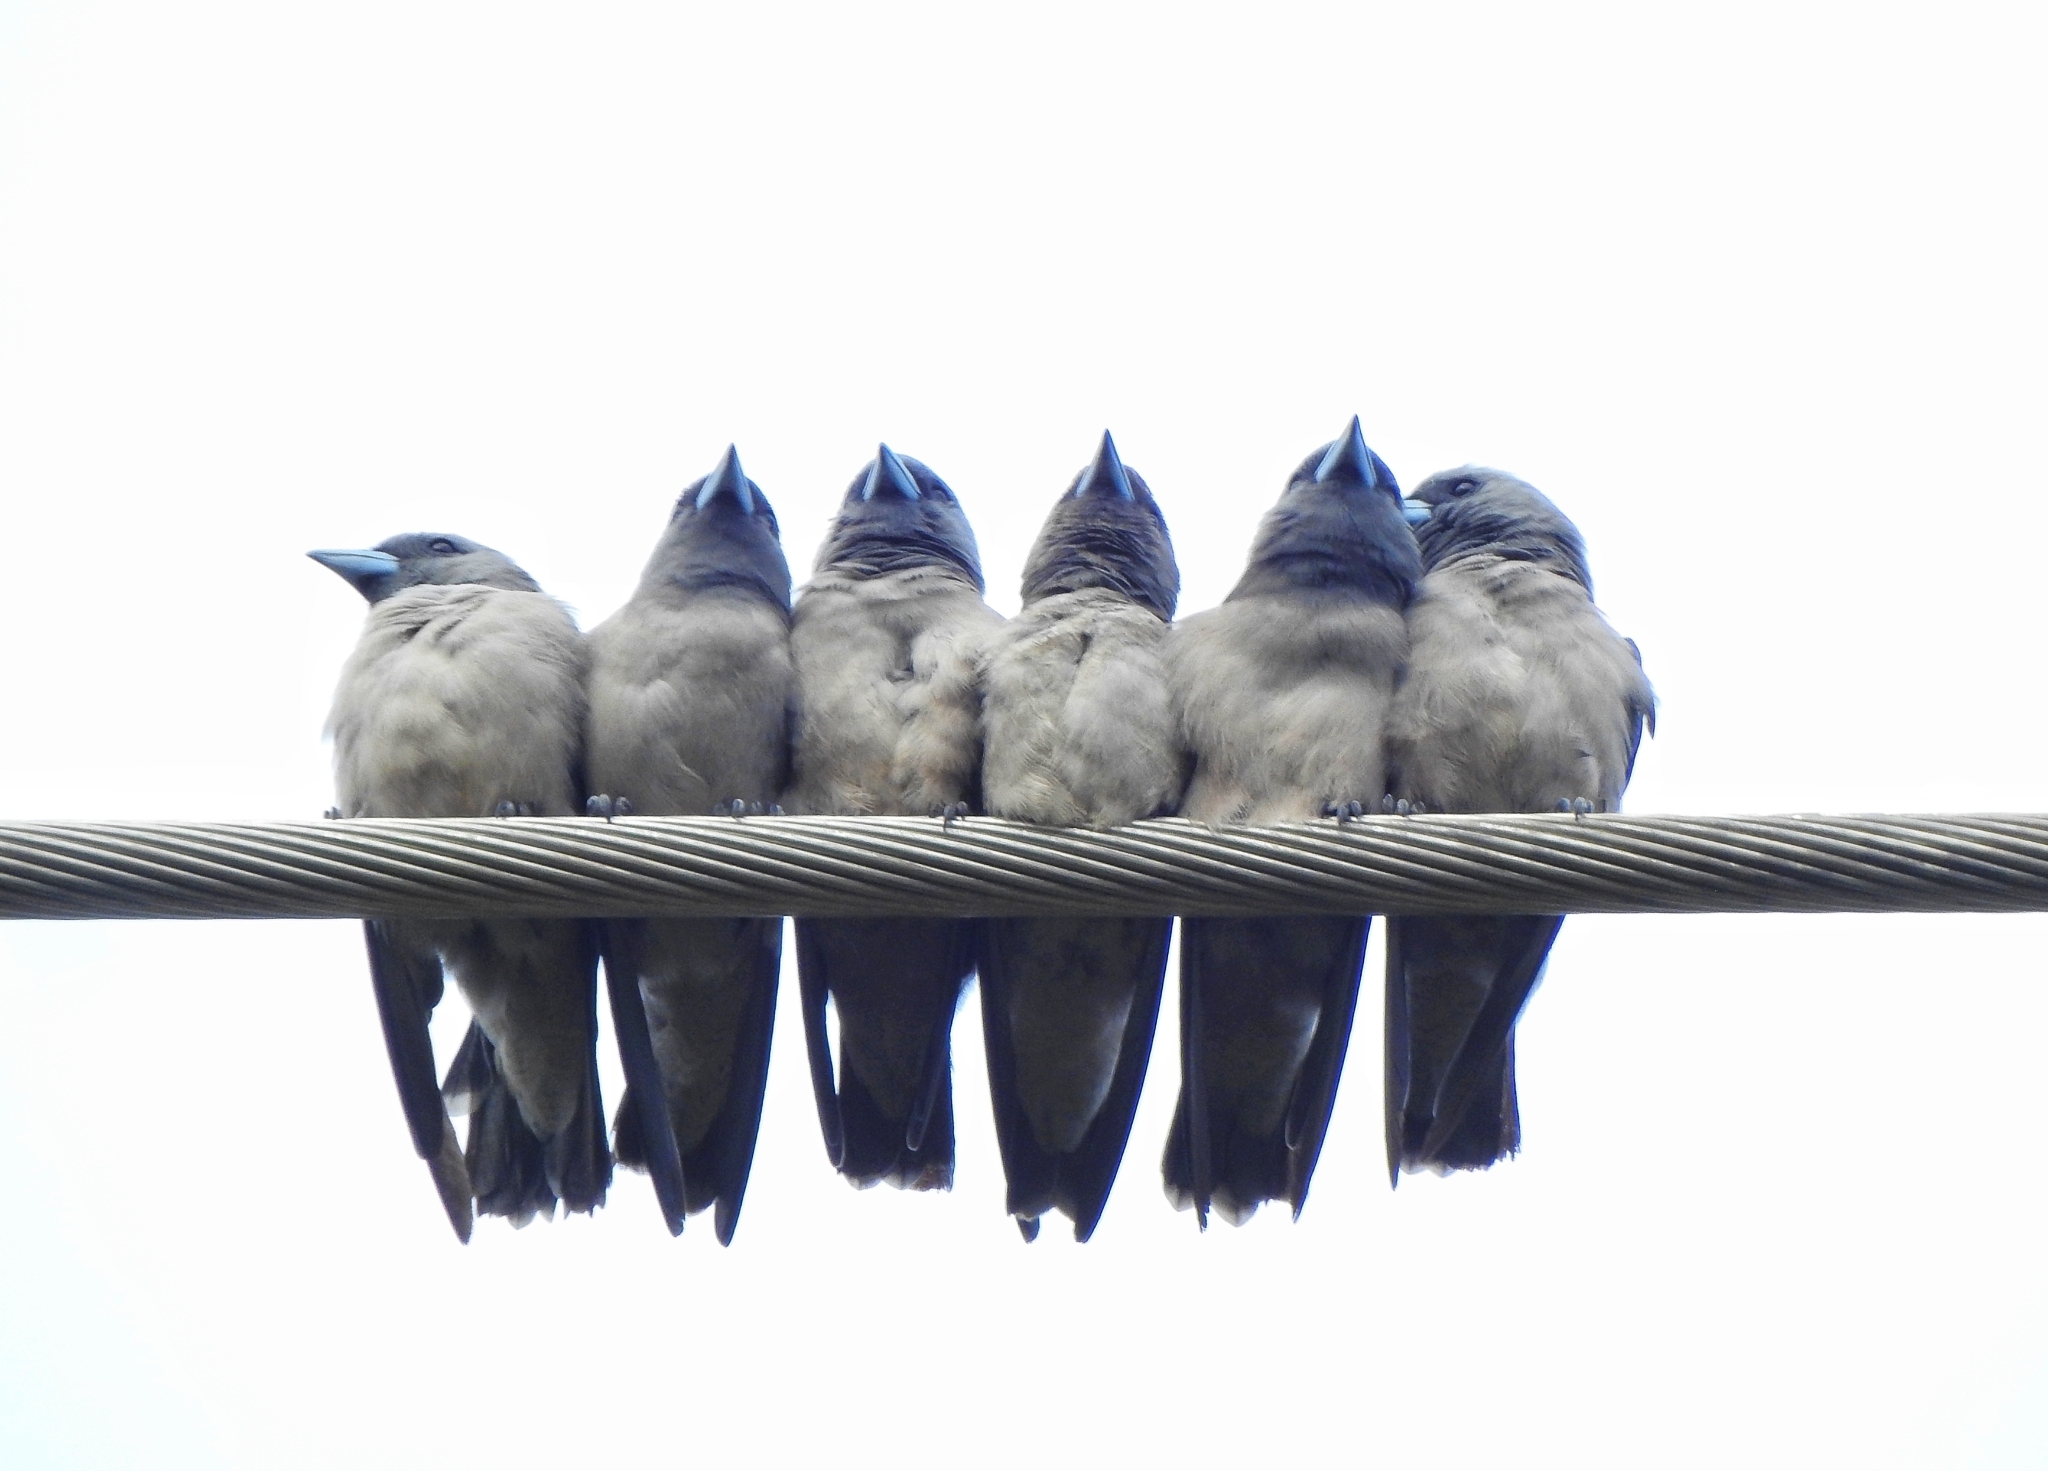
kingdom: Animalia
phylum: Chordata
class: Aves
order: Passeriformes
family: Artamidae
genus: Artamus
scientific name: Artamus fuscus
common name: Ashy woodswallow
